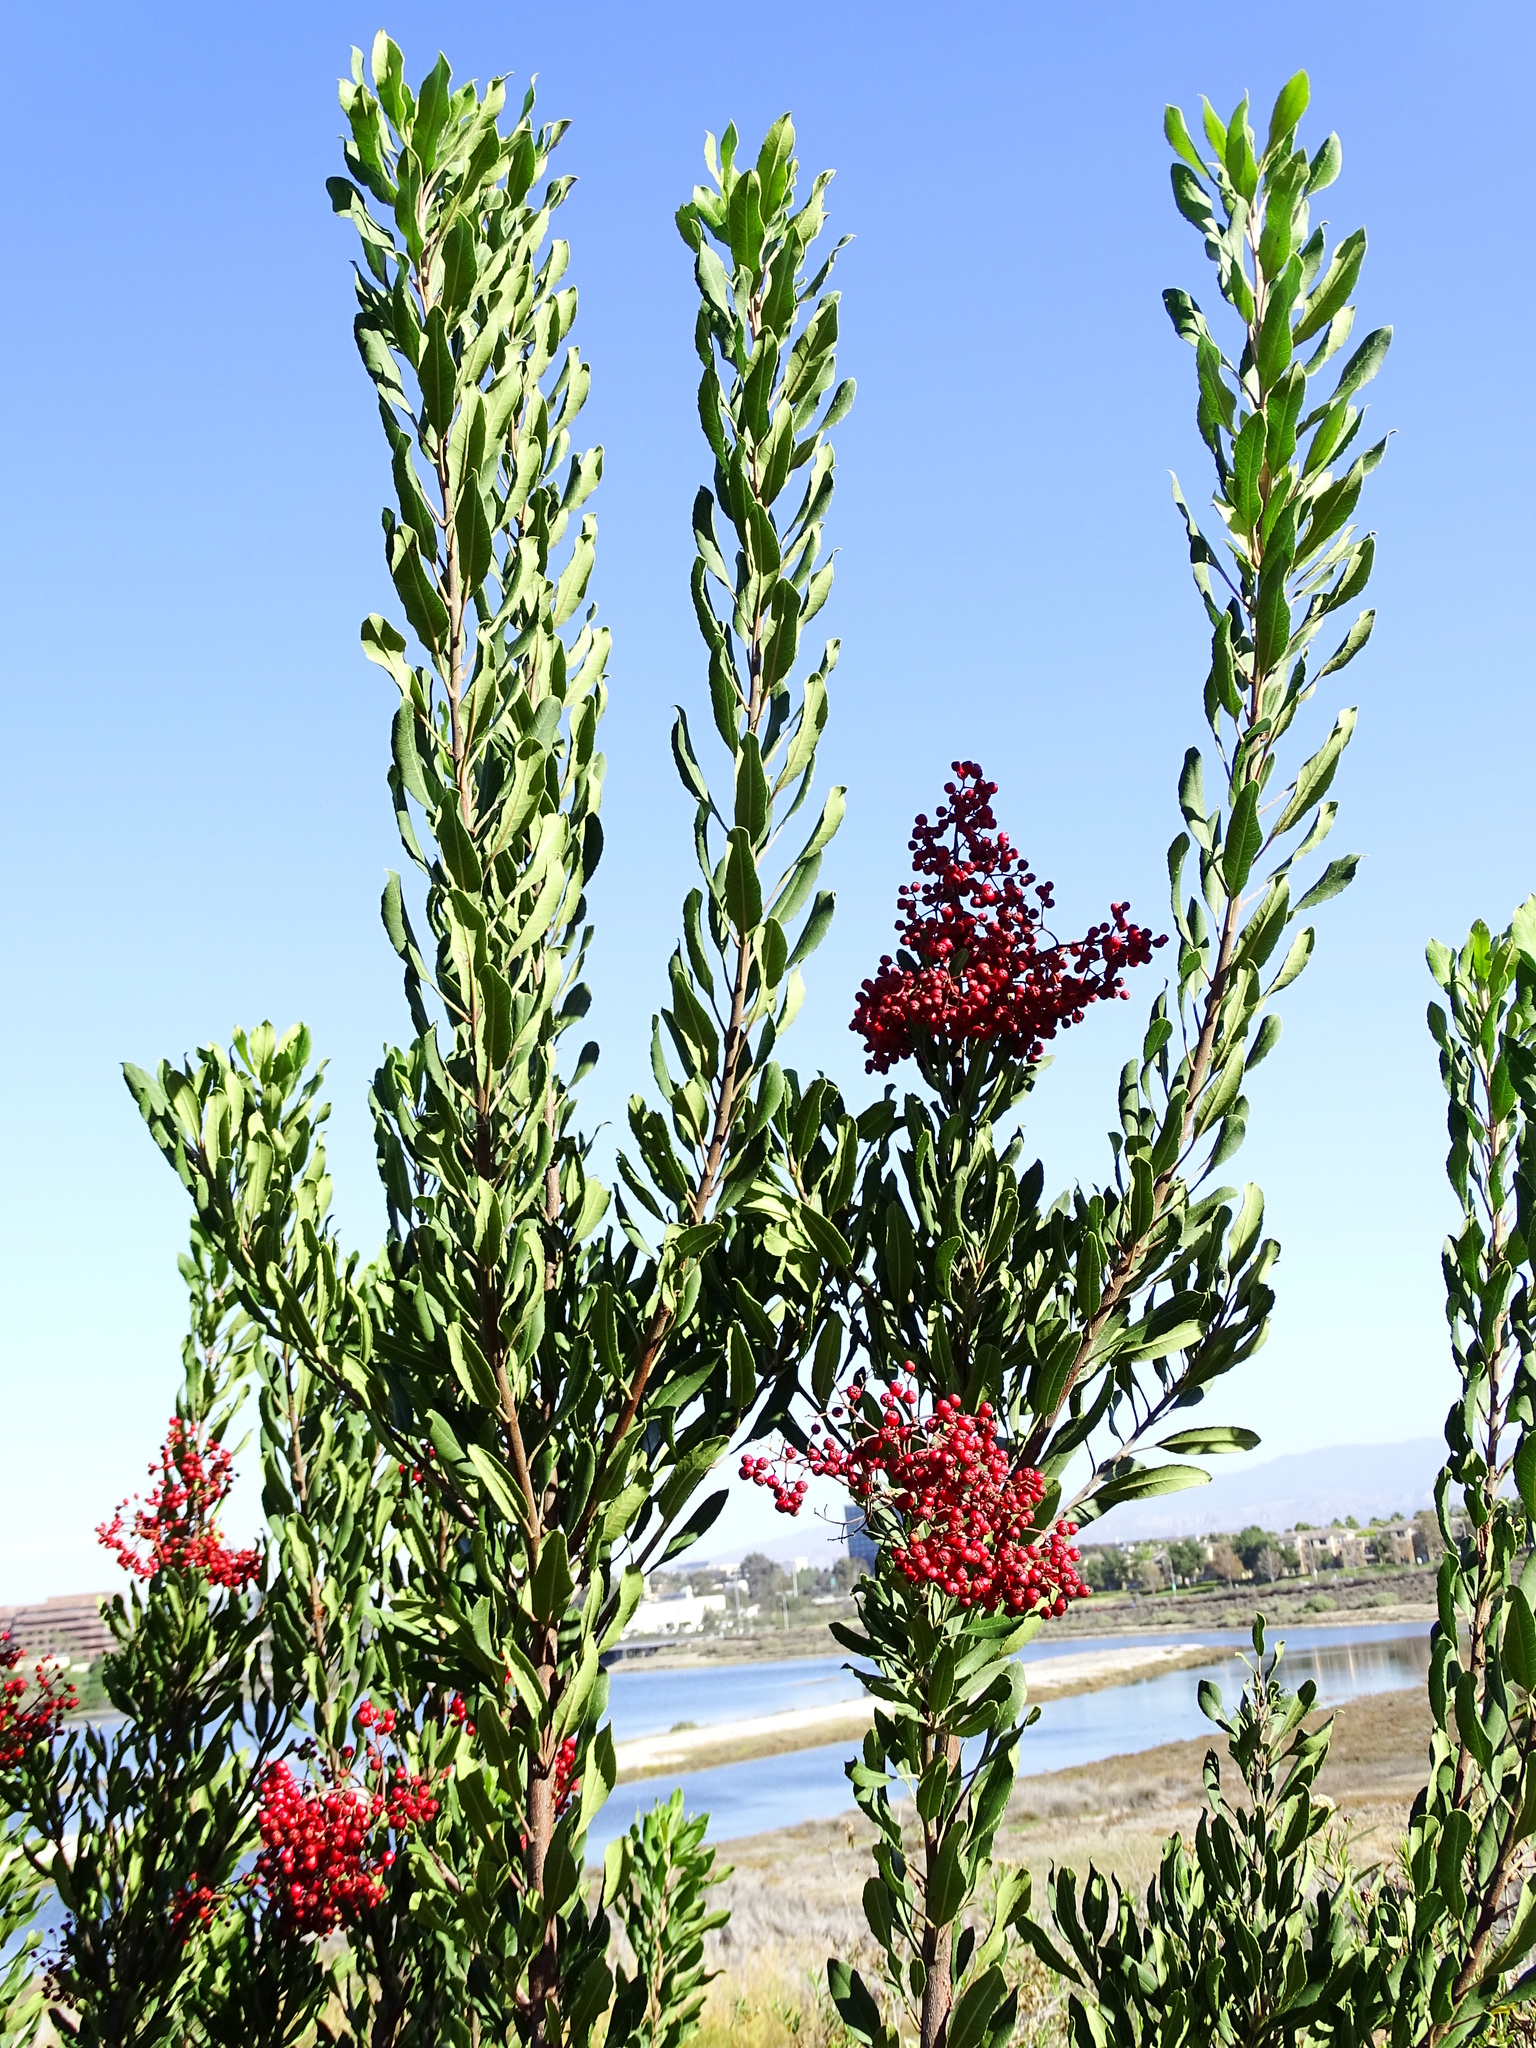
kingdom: Plantae
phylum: Tracheophyta
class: Magnoliopsida
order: Rosales
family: Rosaceae
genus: Heteromeles
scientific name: Heteromeles arbutifolia
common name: California-holly
